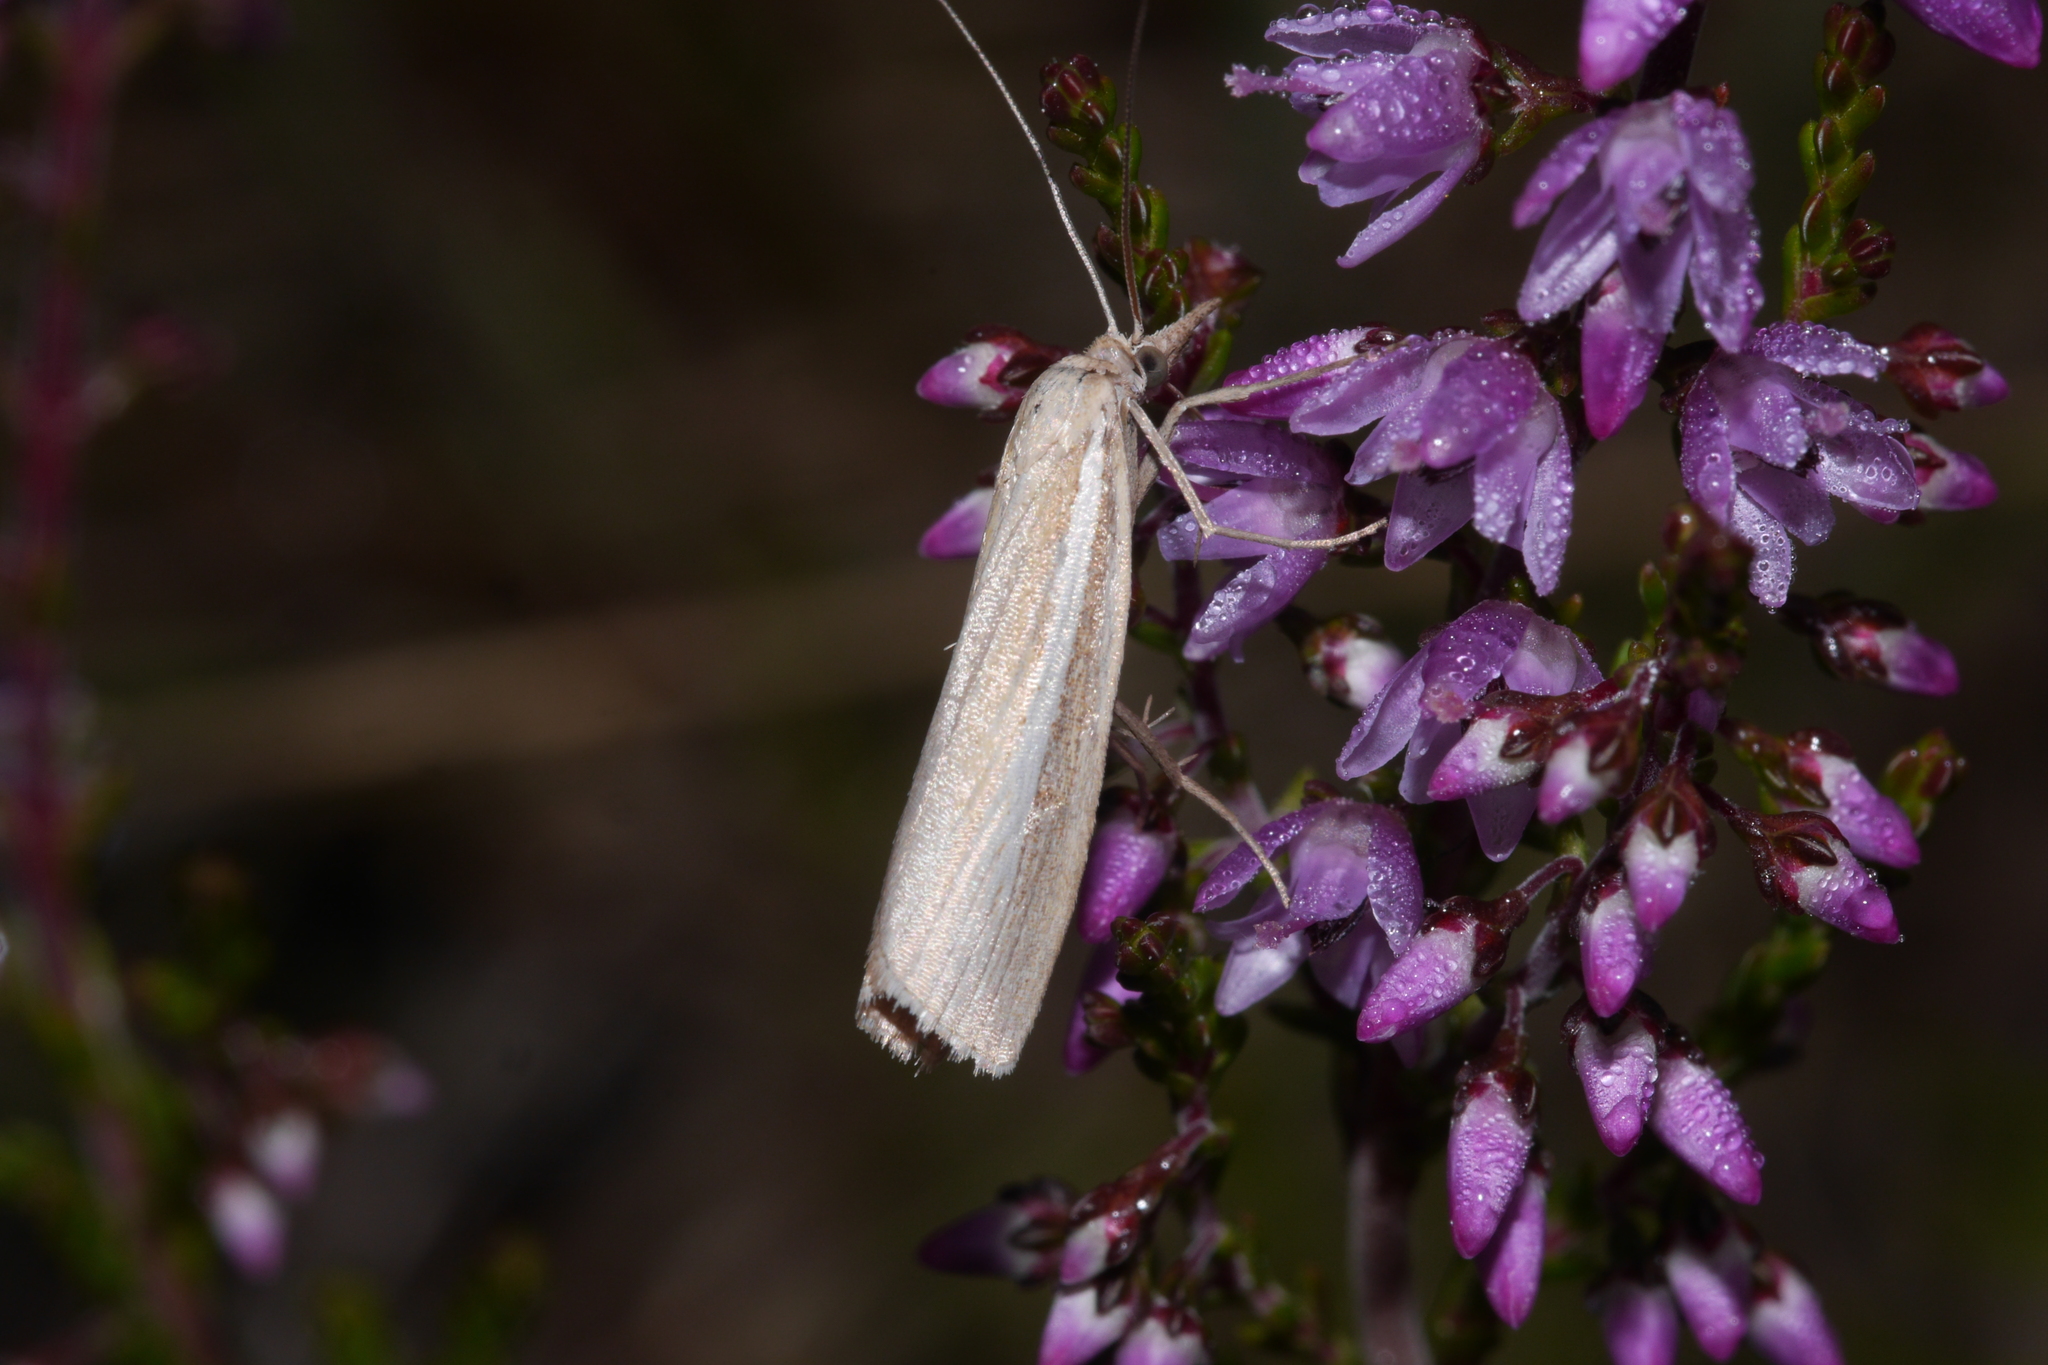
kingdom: Animalia
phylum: Arthropoda
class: Insecta
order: Lepidoptera
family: Crambidae
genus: Agriphila
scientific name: Agriphila selasella
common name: Pale-streak grass-veneer
